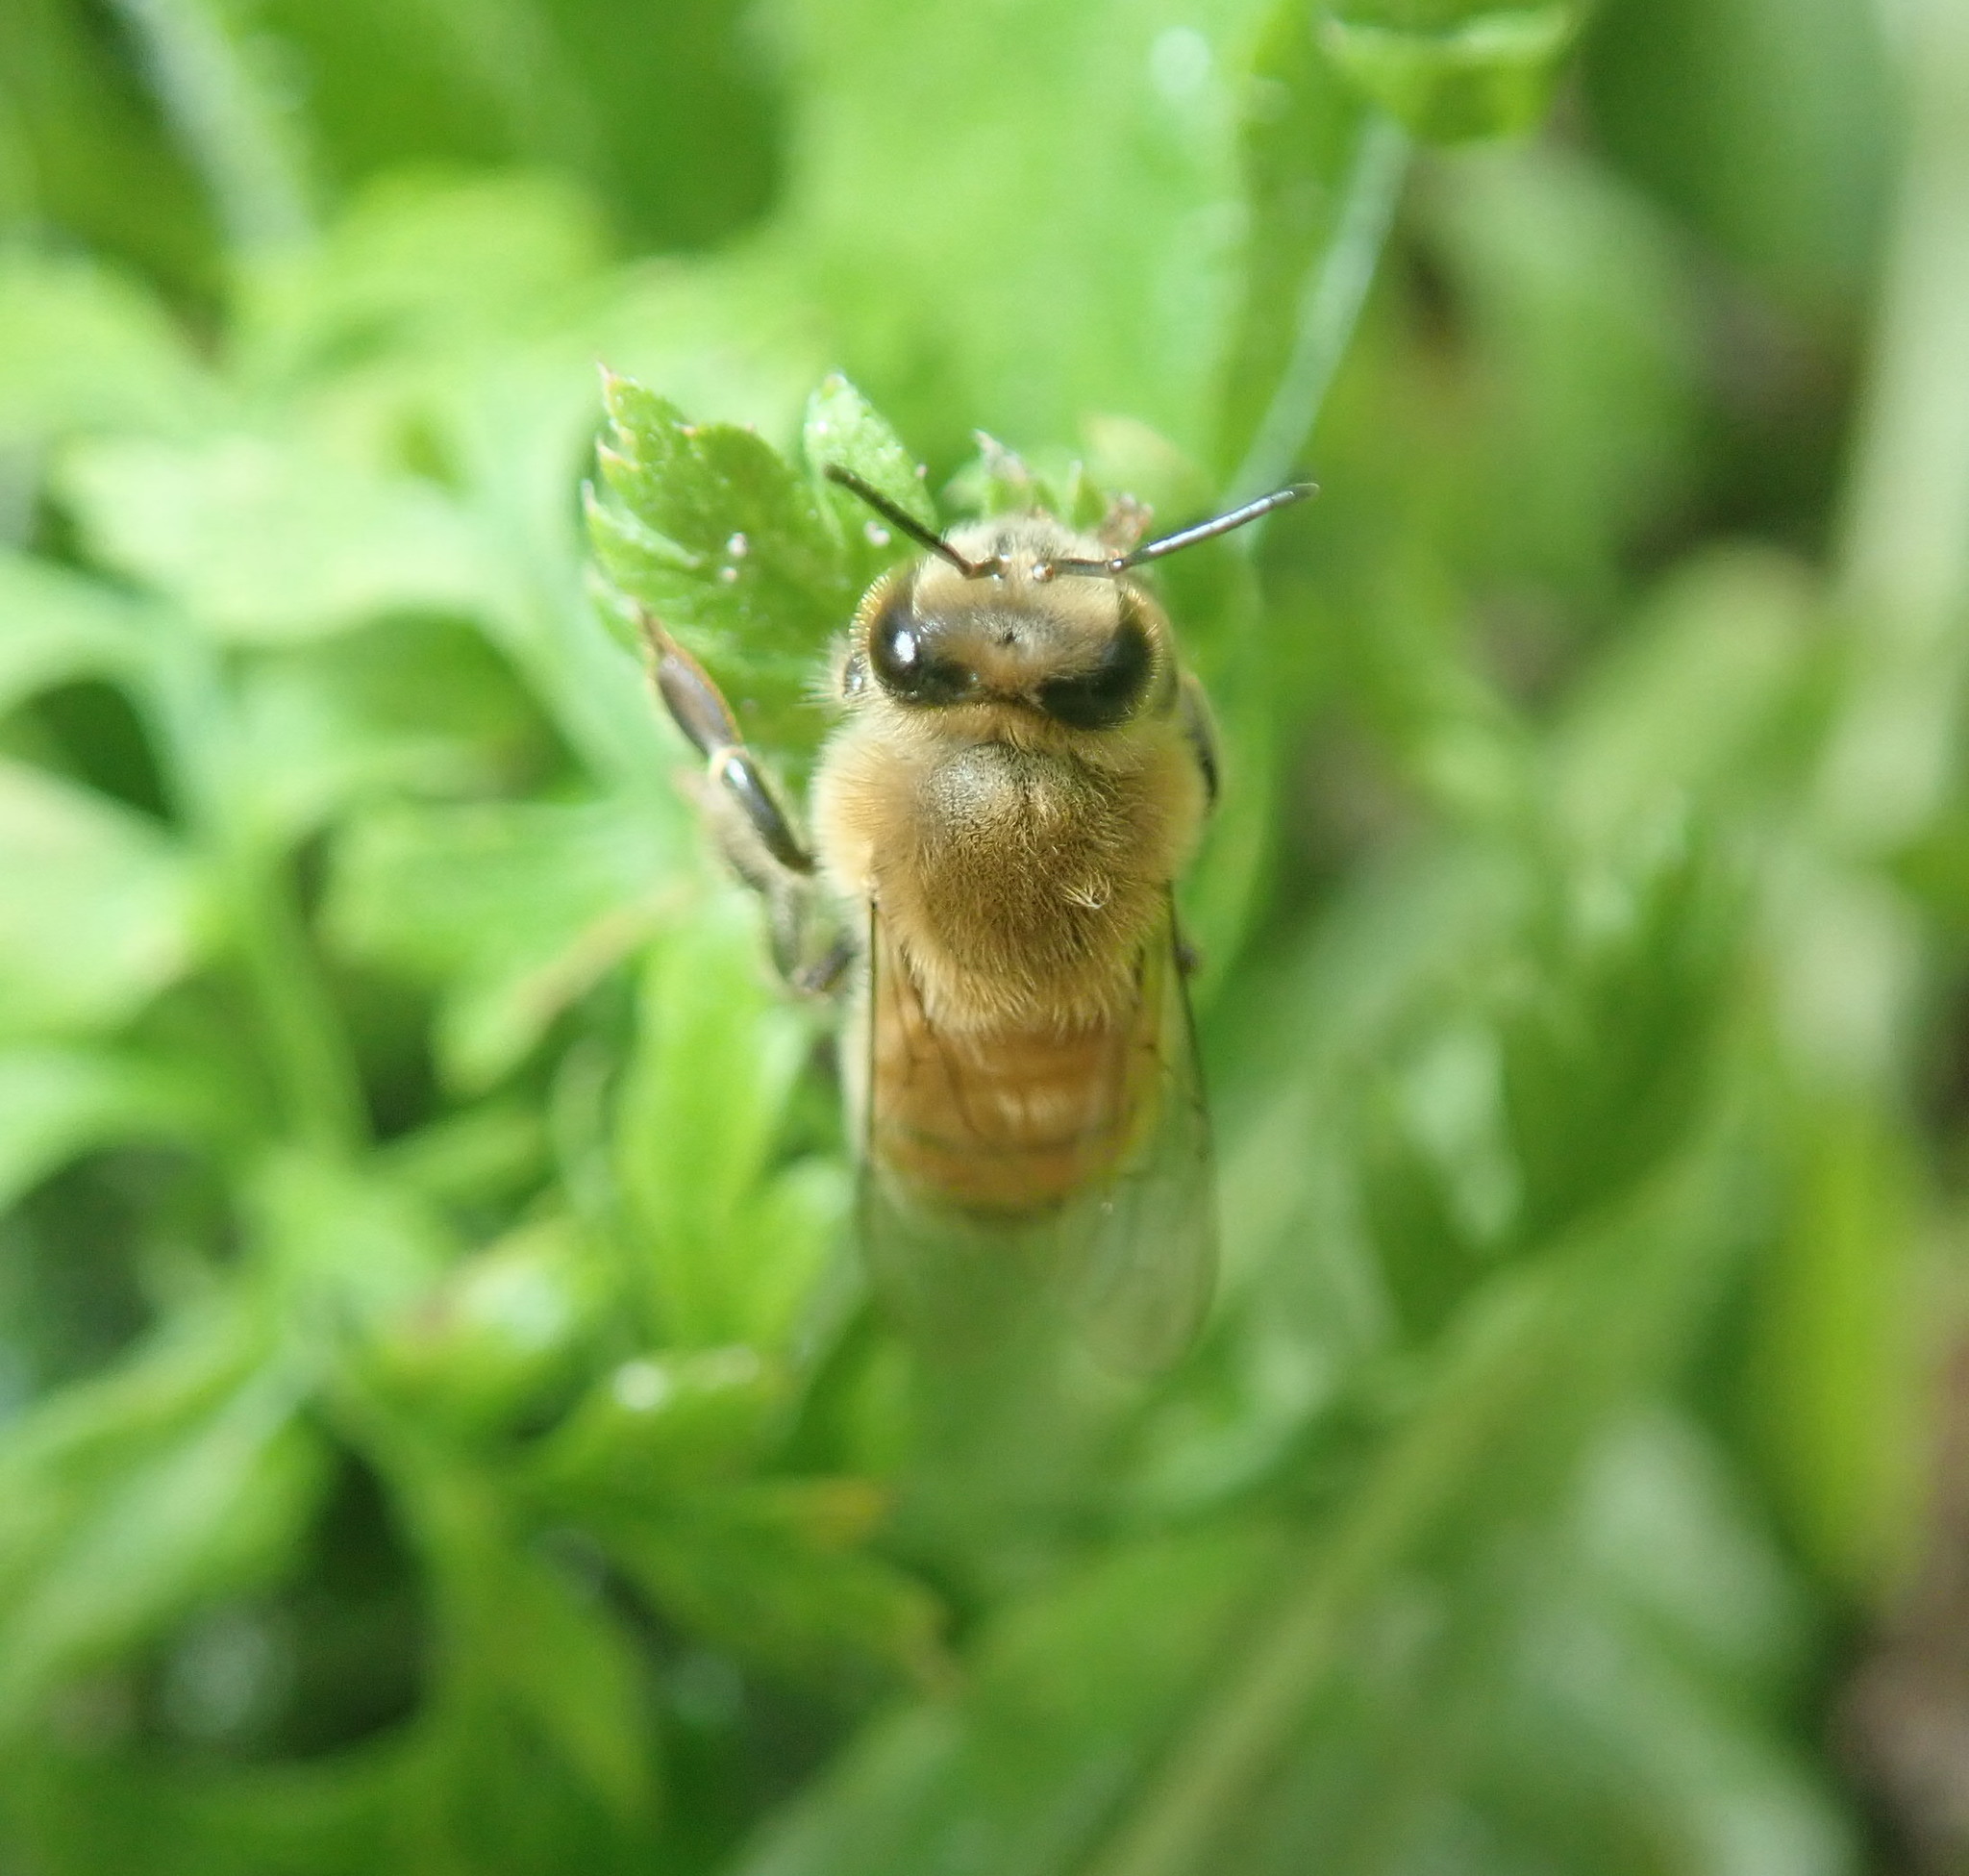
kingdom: Animalia
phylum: Arthropoda
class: Insecta
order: Hymenoptera
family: Apidae
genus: Apis
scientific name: Apis mellifera
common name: Honey bee
